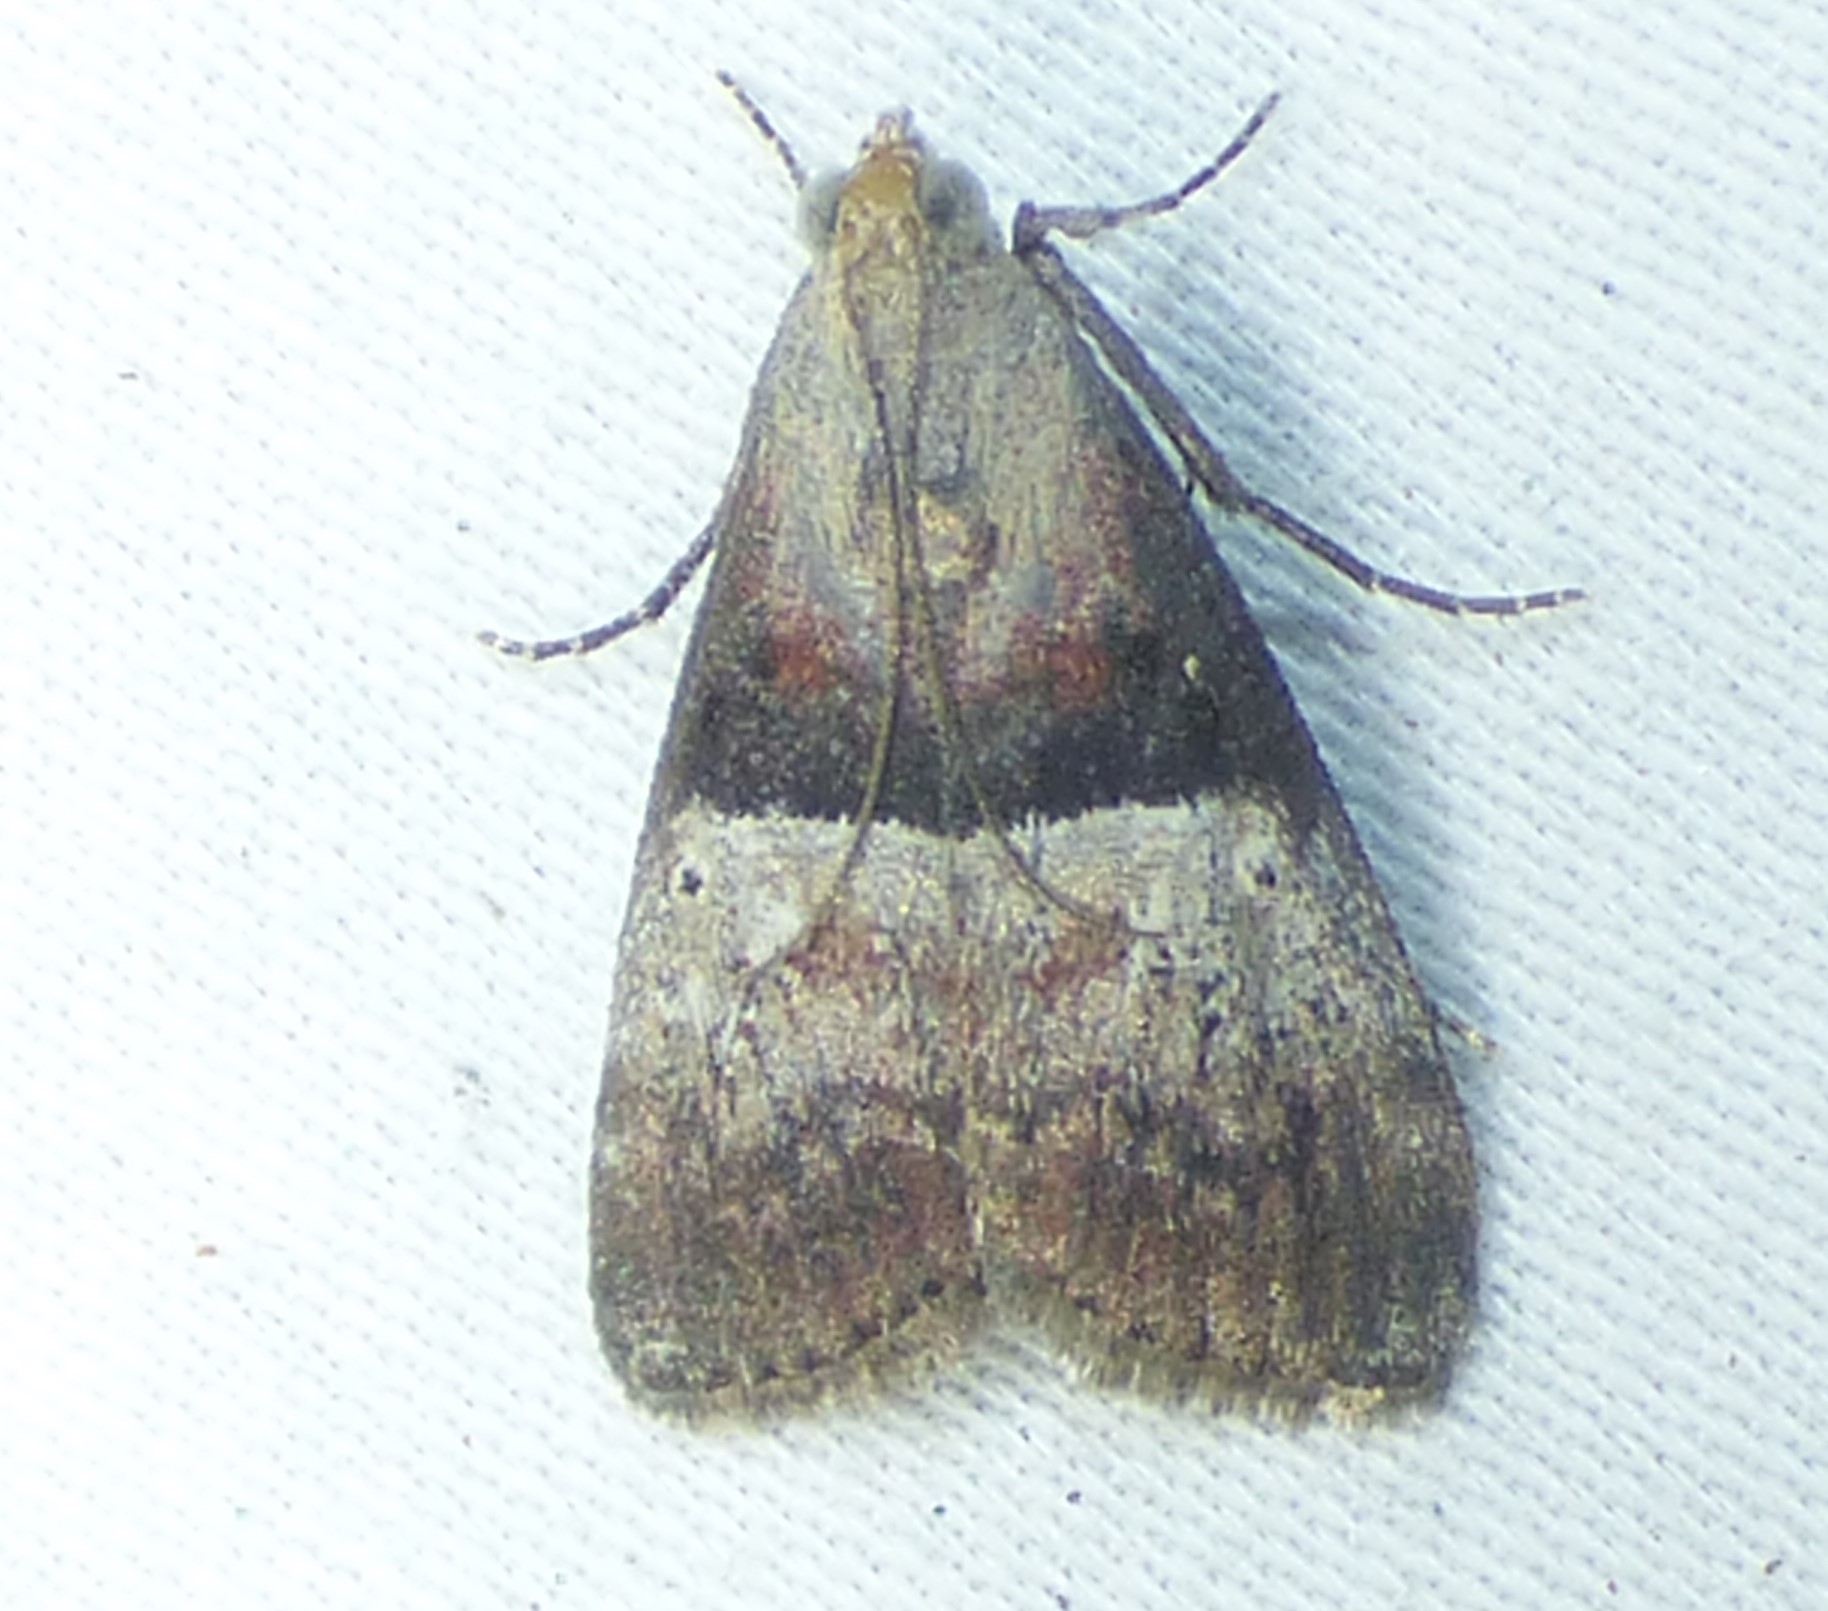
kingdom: Animalia
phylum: Arthropoda
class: Insecta
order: Lepidoptera
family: Pyralidae
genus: Pococera
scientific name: Pococera robustella
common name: Pine webworm moth
